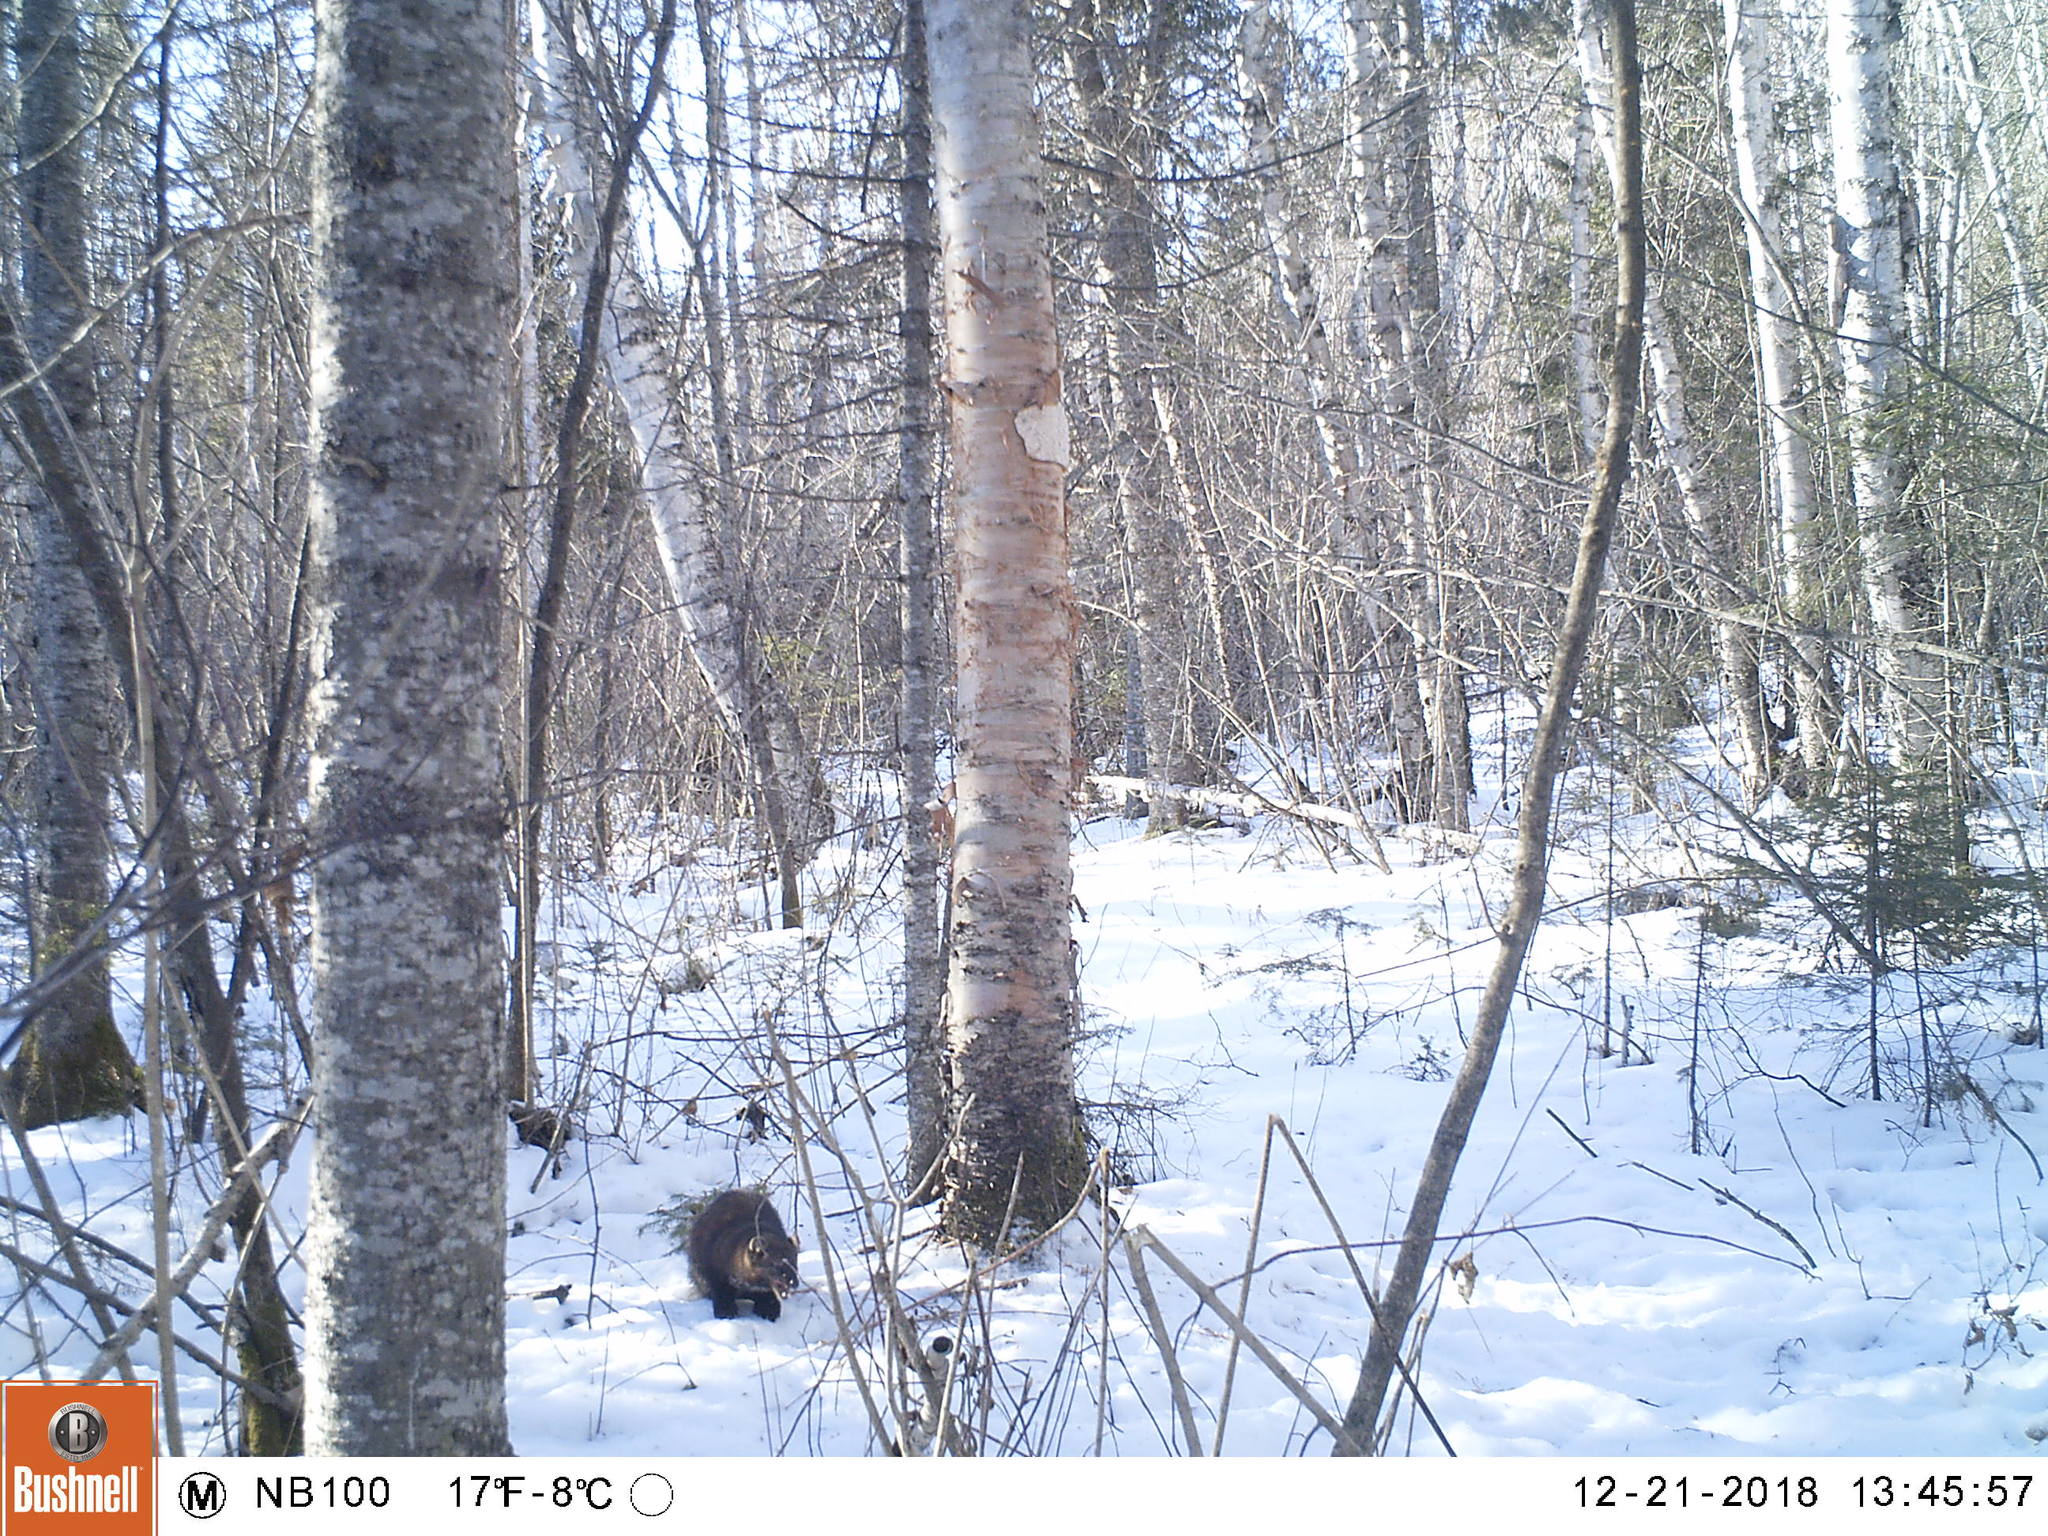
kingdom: Animalia
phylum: Chordata
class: Mammalia
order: Carnivora
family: Mustelidae
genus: Pekania
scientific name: Pekania pennanti
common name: Fisher
